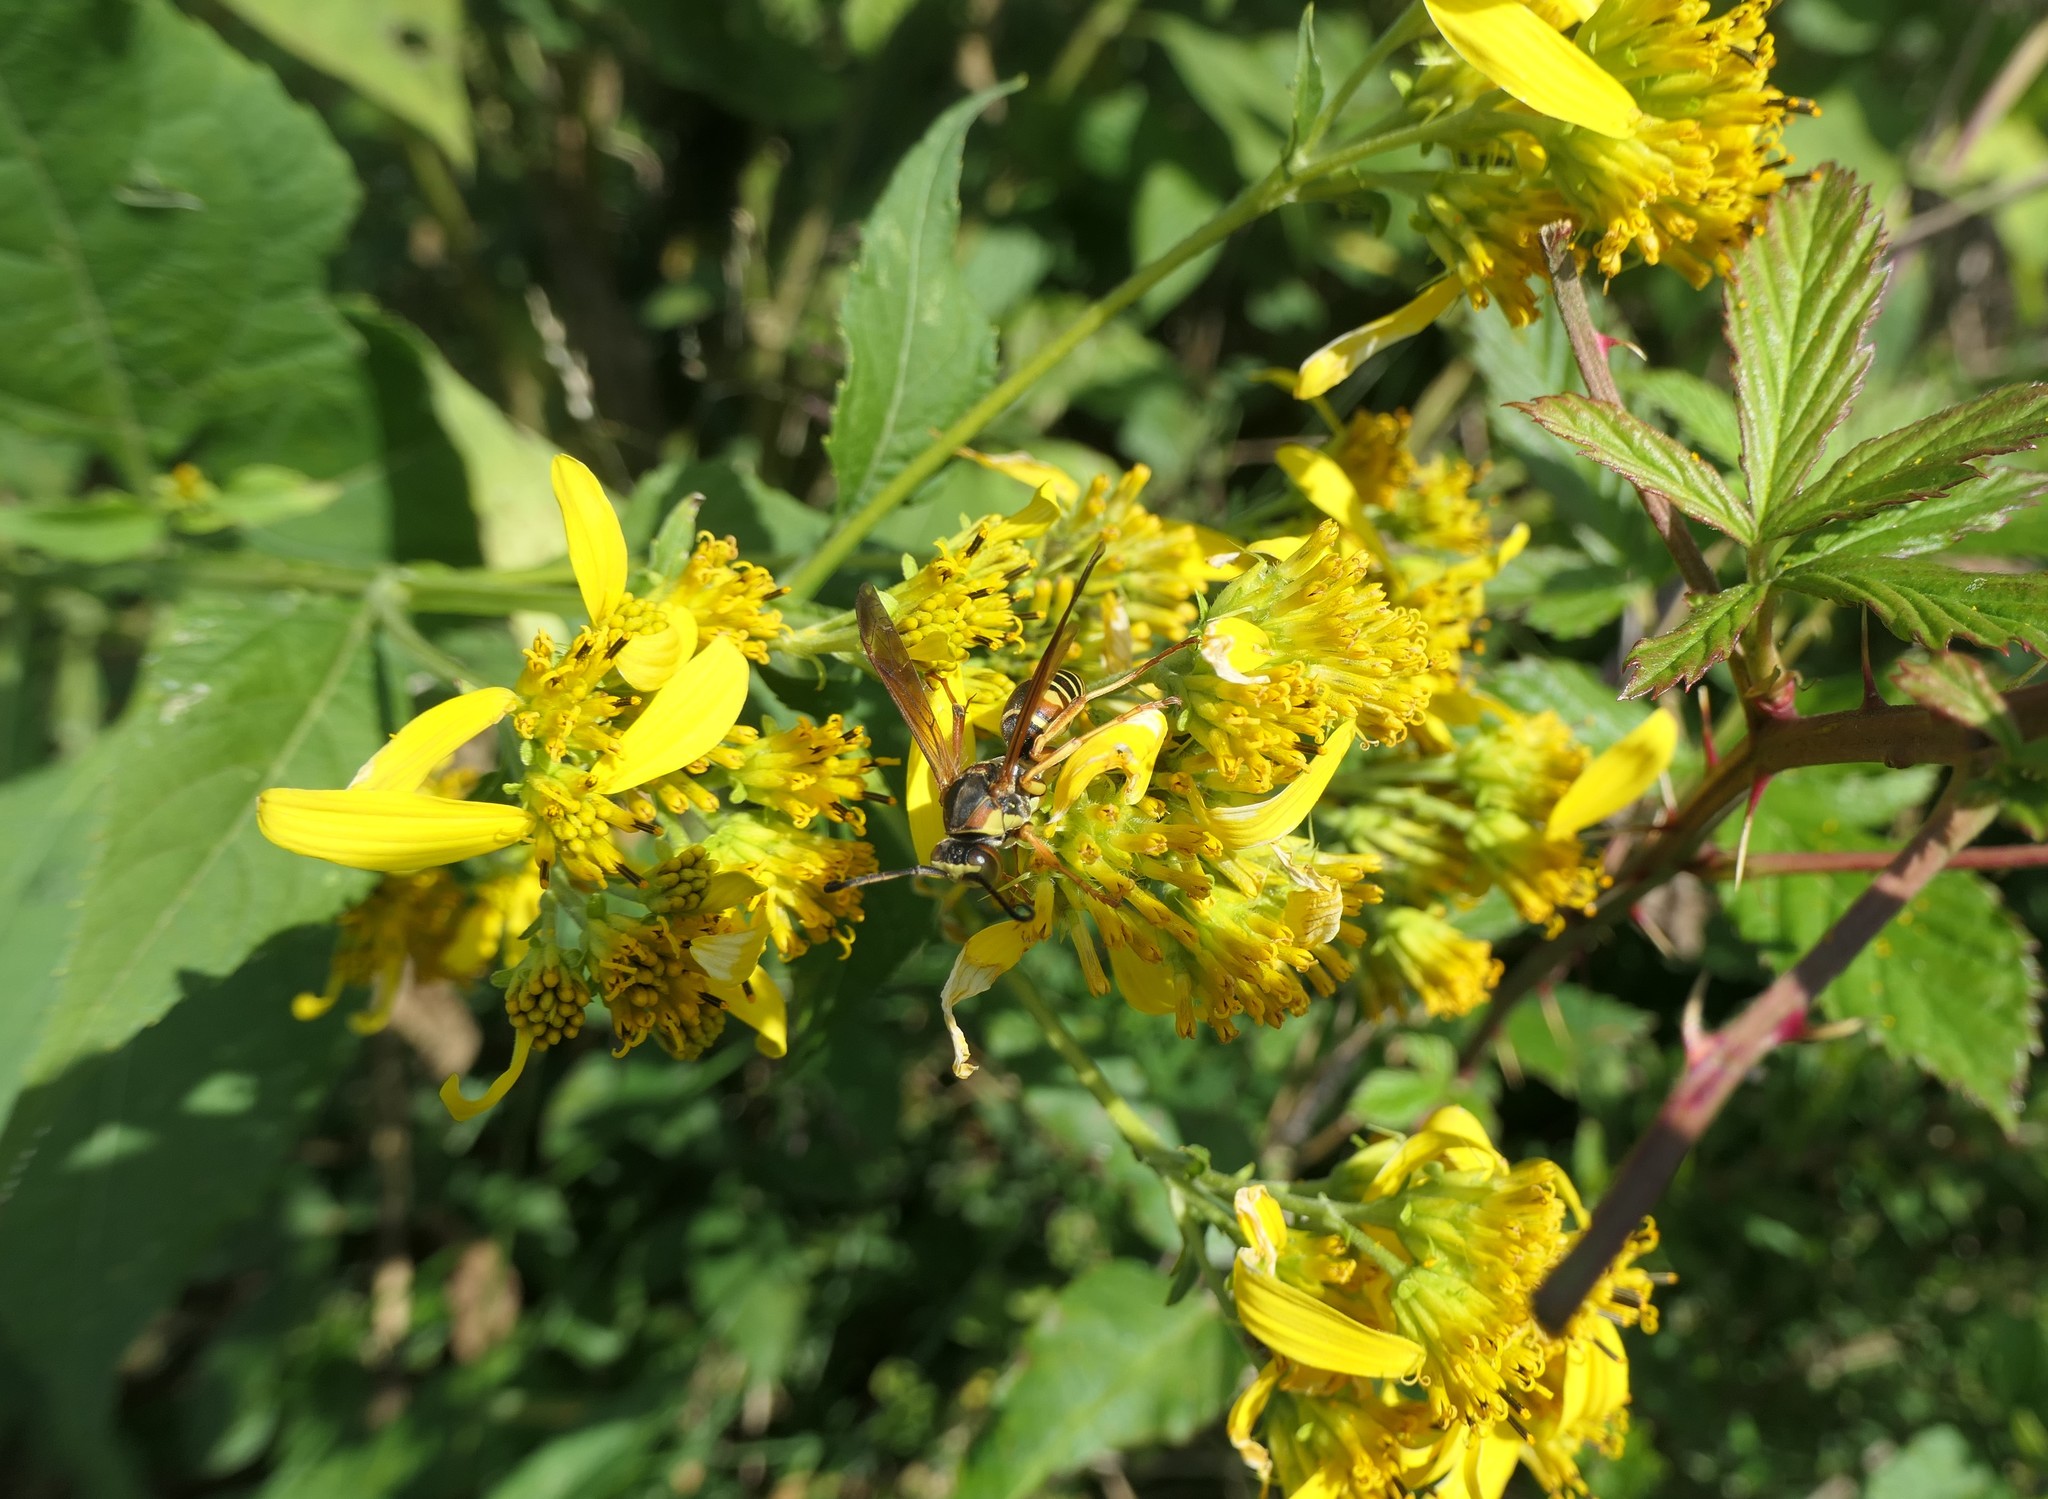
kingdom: Animalia
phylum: Arthropoda
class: Insecta
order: Hymenoptera
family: Eumenidae
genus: Polistes
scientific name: Polistes fuscatus
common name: Dark paper wasp
